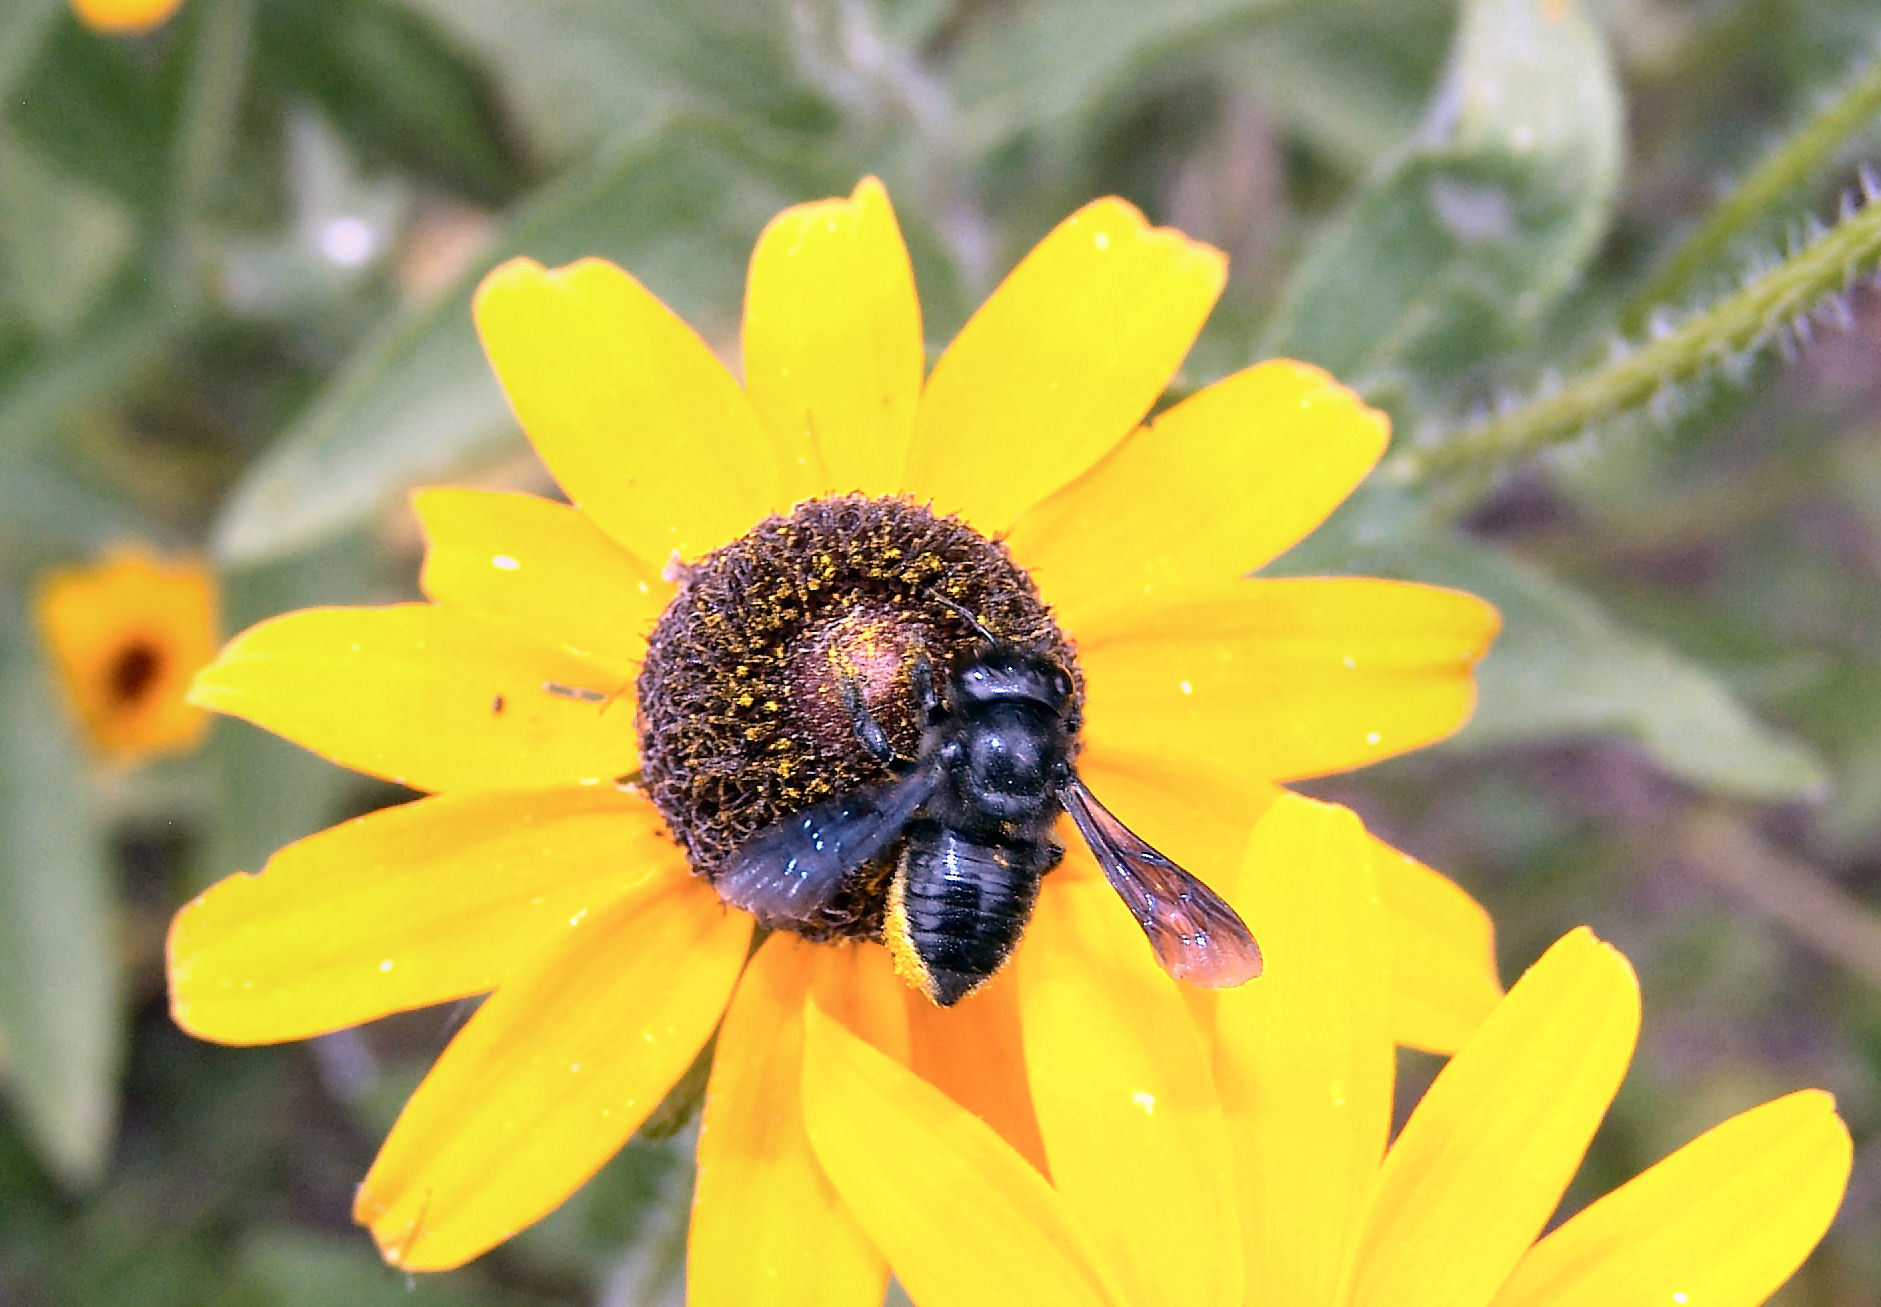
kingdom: Animalia
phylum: Arthropoda
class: Insecta
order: Hymenoptera
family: Megachilidae
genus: Megachile
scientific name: Megachile xylocopoides
